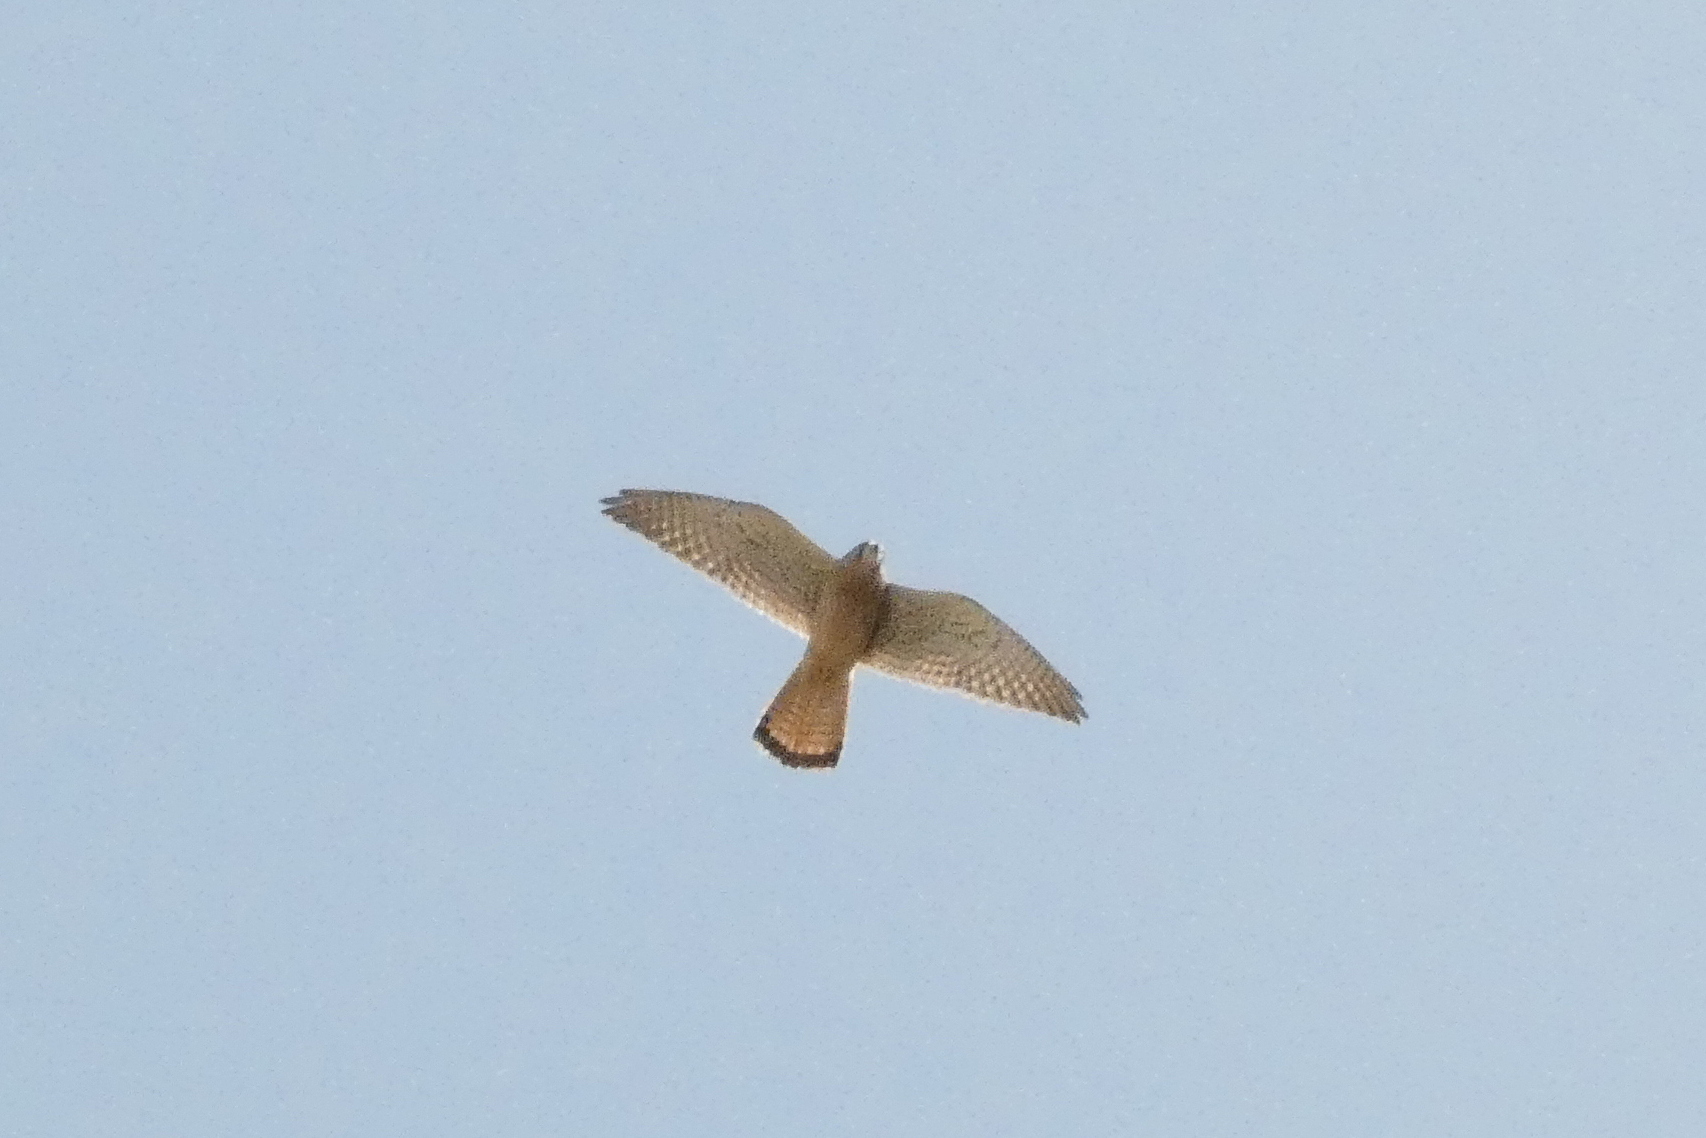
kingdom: Animalia
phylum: Chordata
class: Aves
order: Falconiformes
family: Falconidae
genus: Falco
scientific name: Falco tinnunculus
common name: Common kestrel
